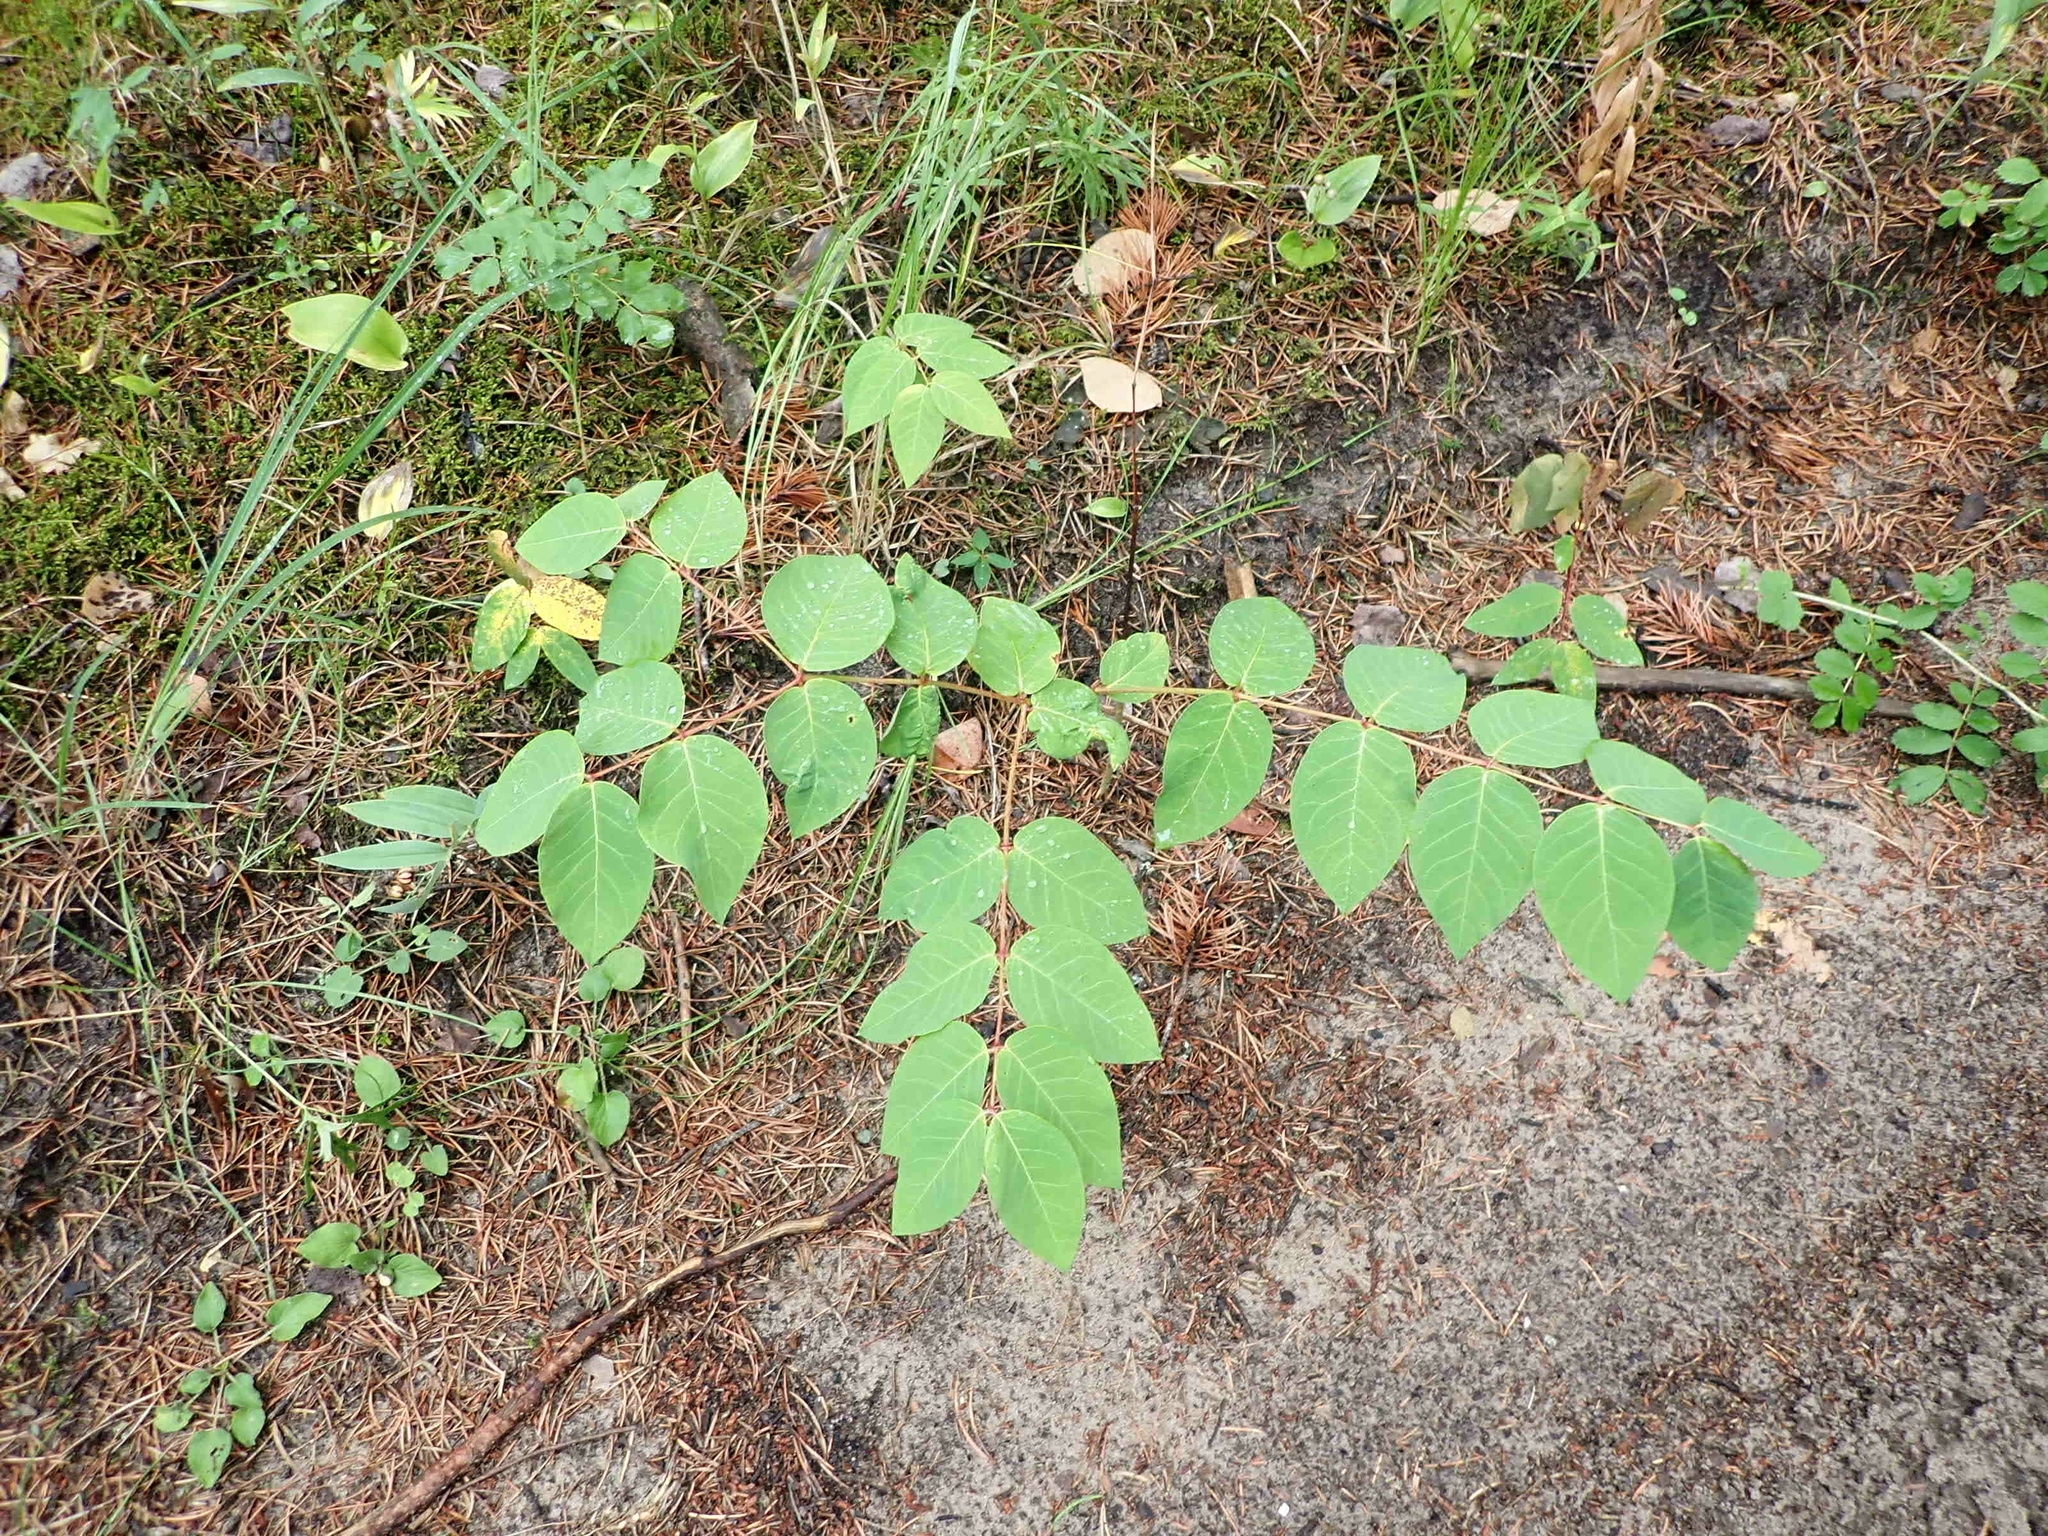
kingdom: Plantae
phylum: Tracheophyta
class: Magnoliopsida
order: Gentianales
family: Apocynaceae
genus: Apocynum
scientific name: Apocynum androsaemifolium
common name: Spreading dogbane
